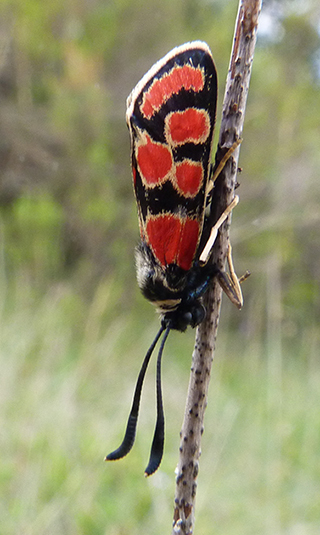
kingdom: Animalia
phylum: Arthropoda
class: Insecta
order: Lepidoptera
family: Zygaenidae
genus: Zygaena
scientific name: Zygaena carniolica
